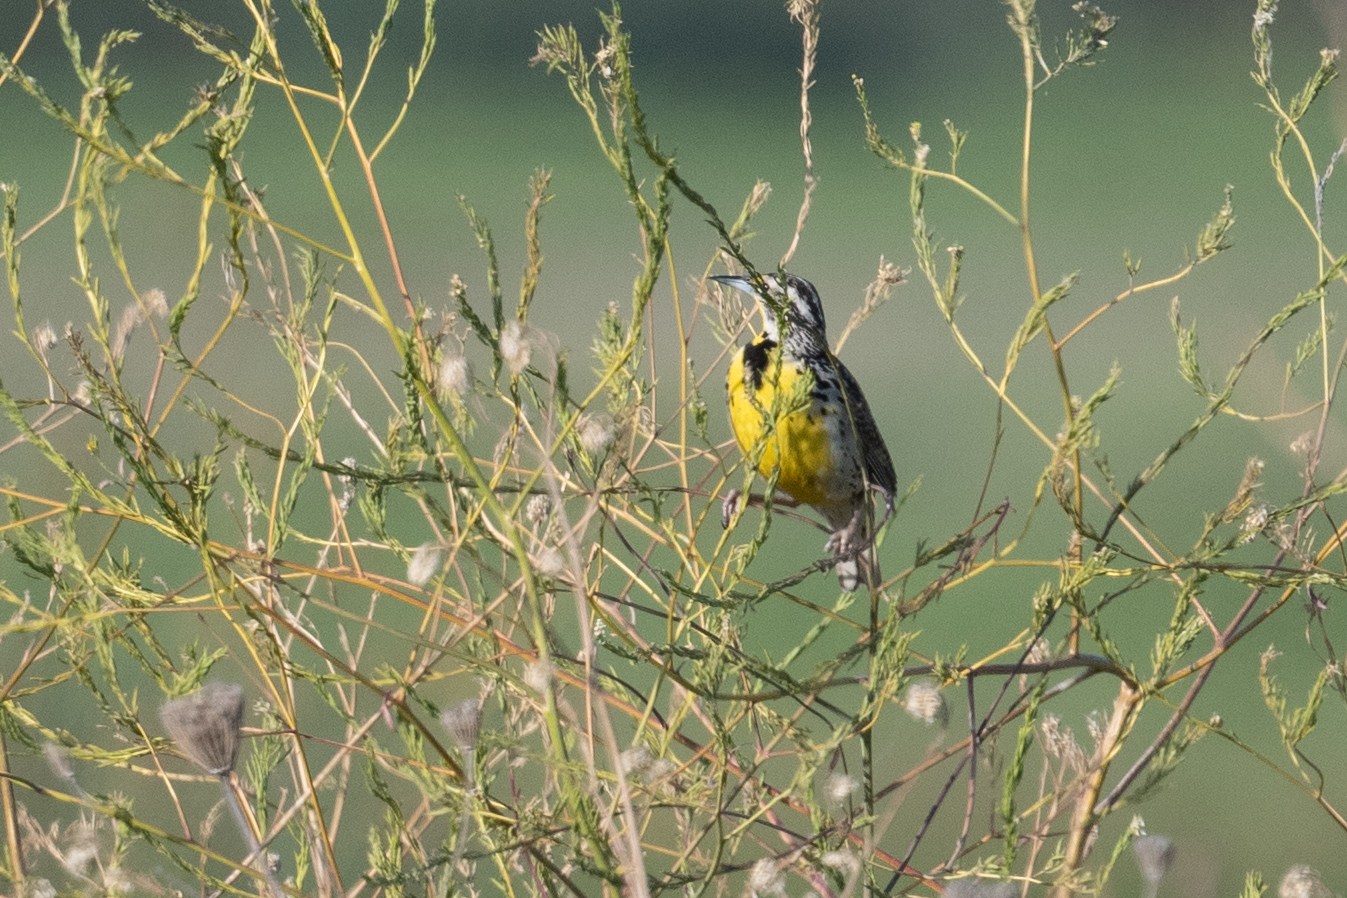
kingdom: Animalia
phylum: Chordata
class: Aves
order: Passeriformes
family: Icteridae
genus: Sturnella
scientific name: Sturnella neglecta
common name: Western meadowlark
